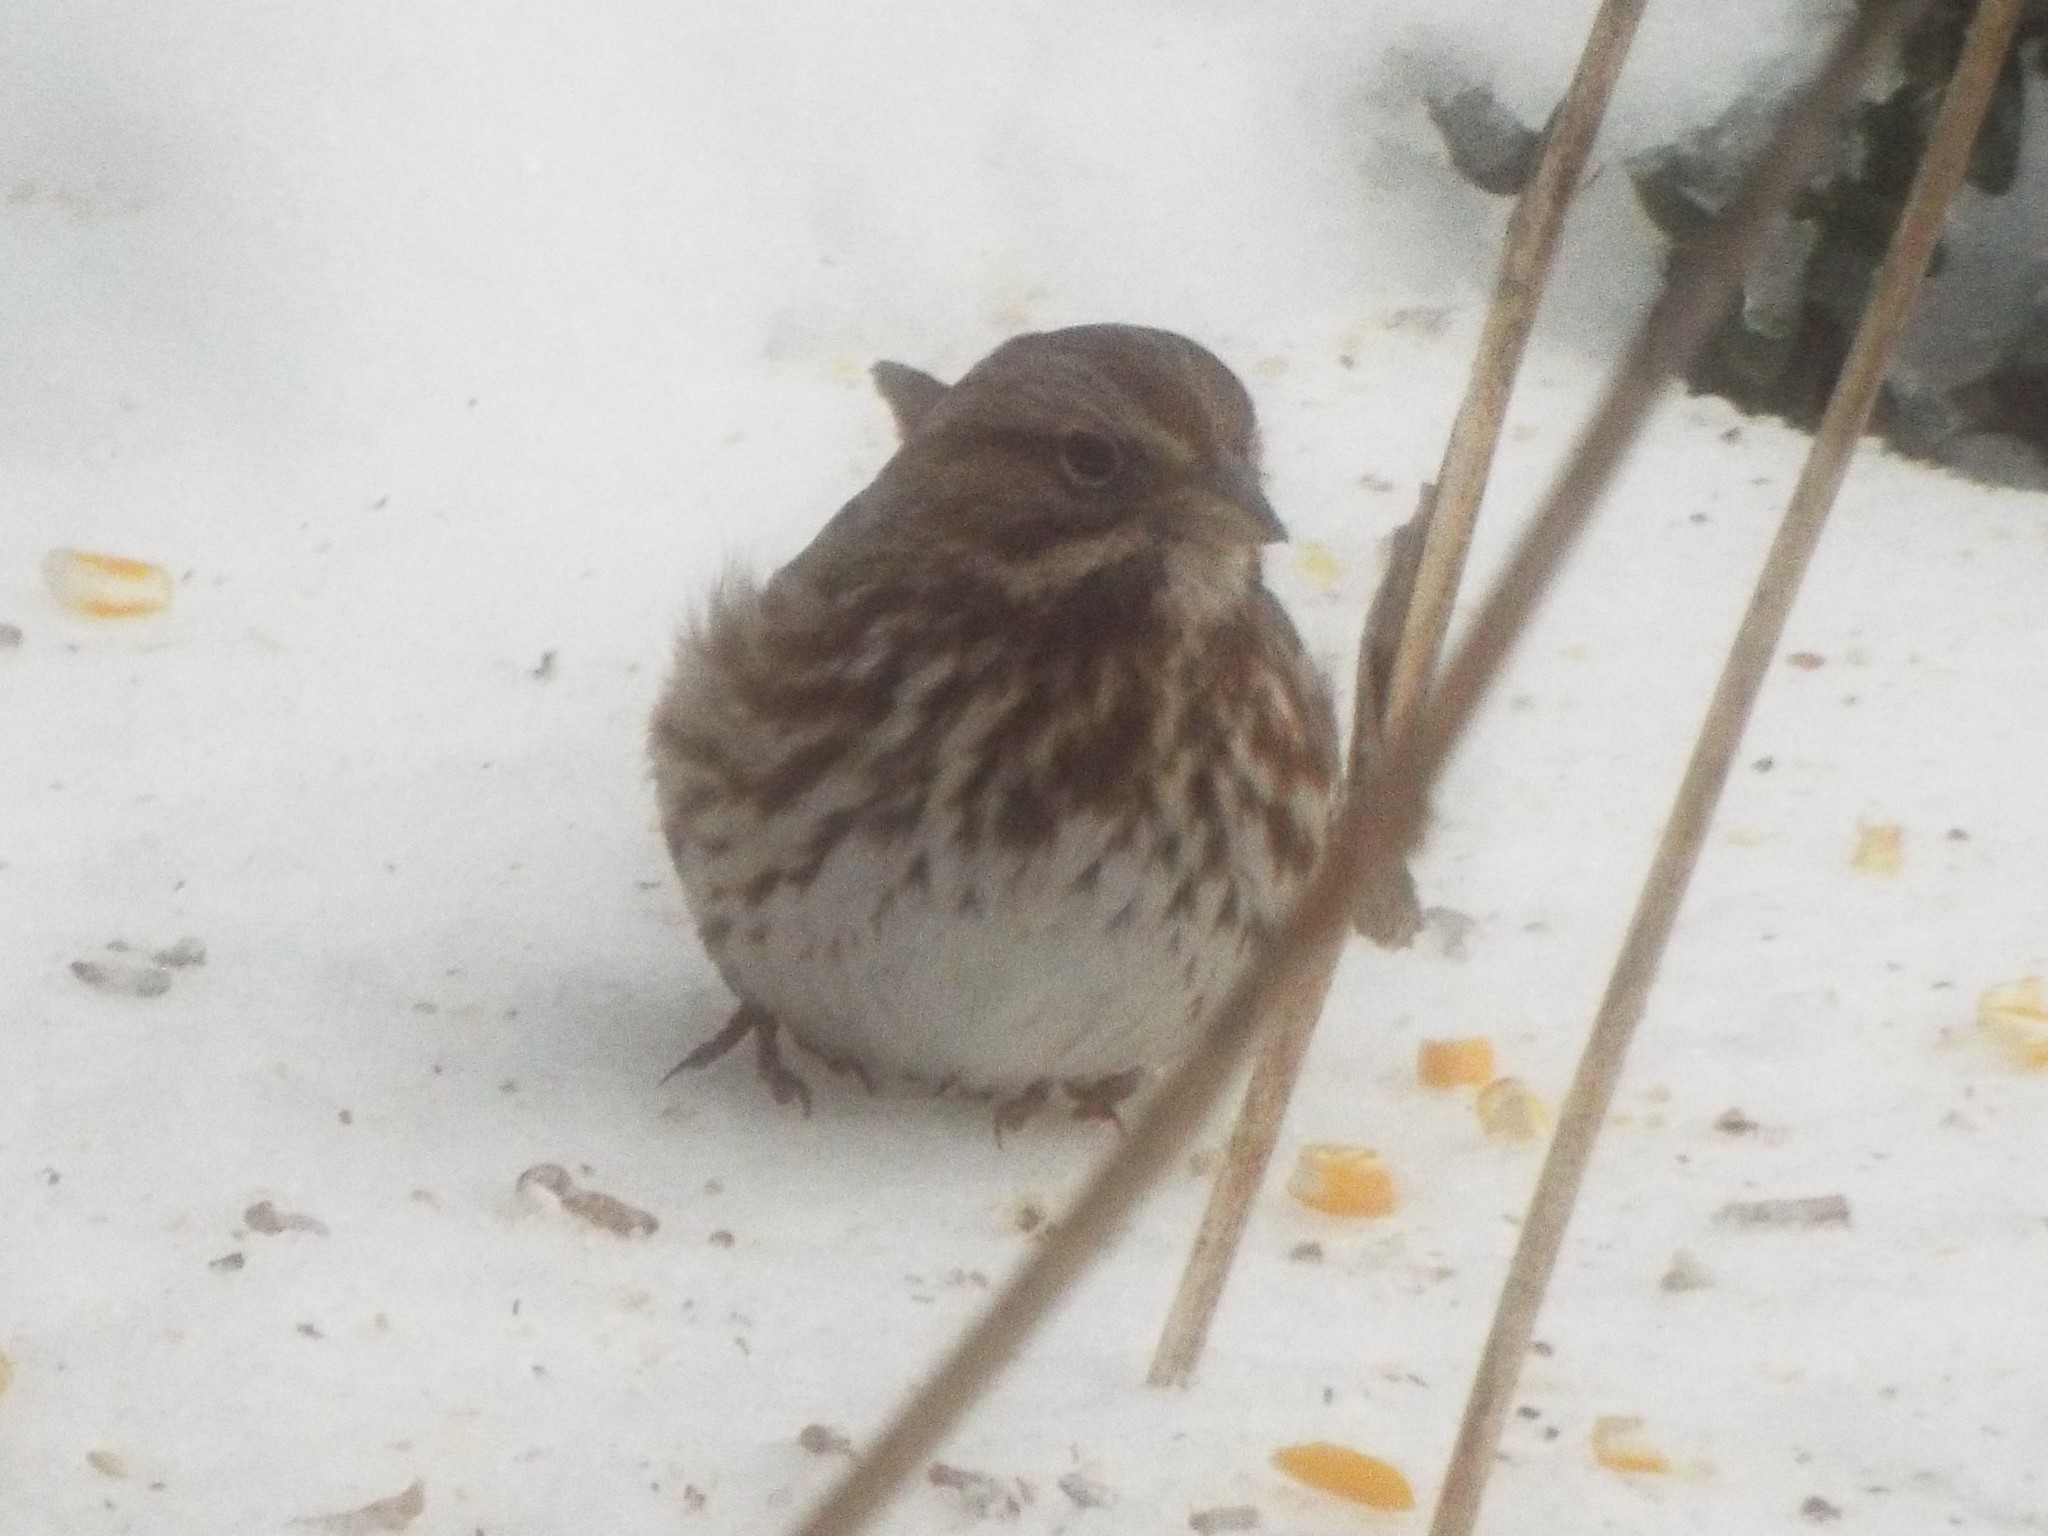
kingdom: Animalia
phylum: Chordata
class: Aves
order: Passeriformes
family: Passerellidae
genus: Melospiza
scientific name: Melospiza melodia
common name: Song sparrow
